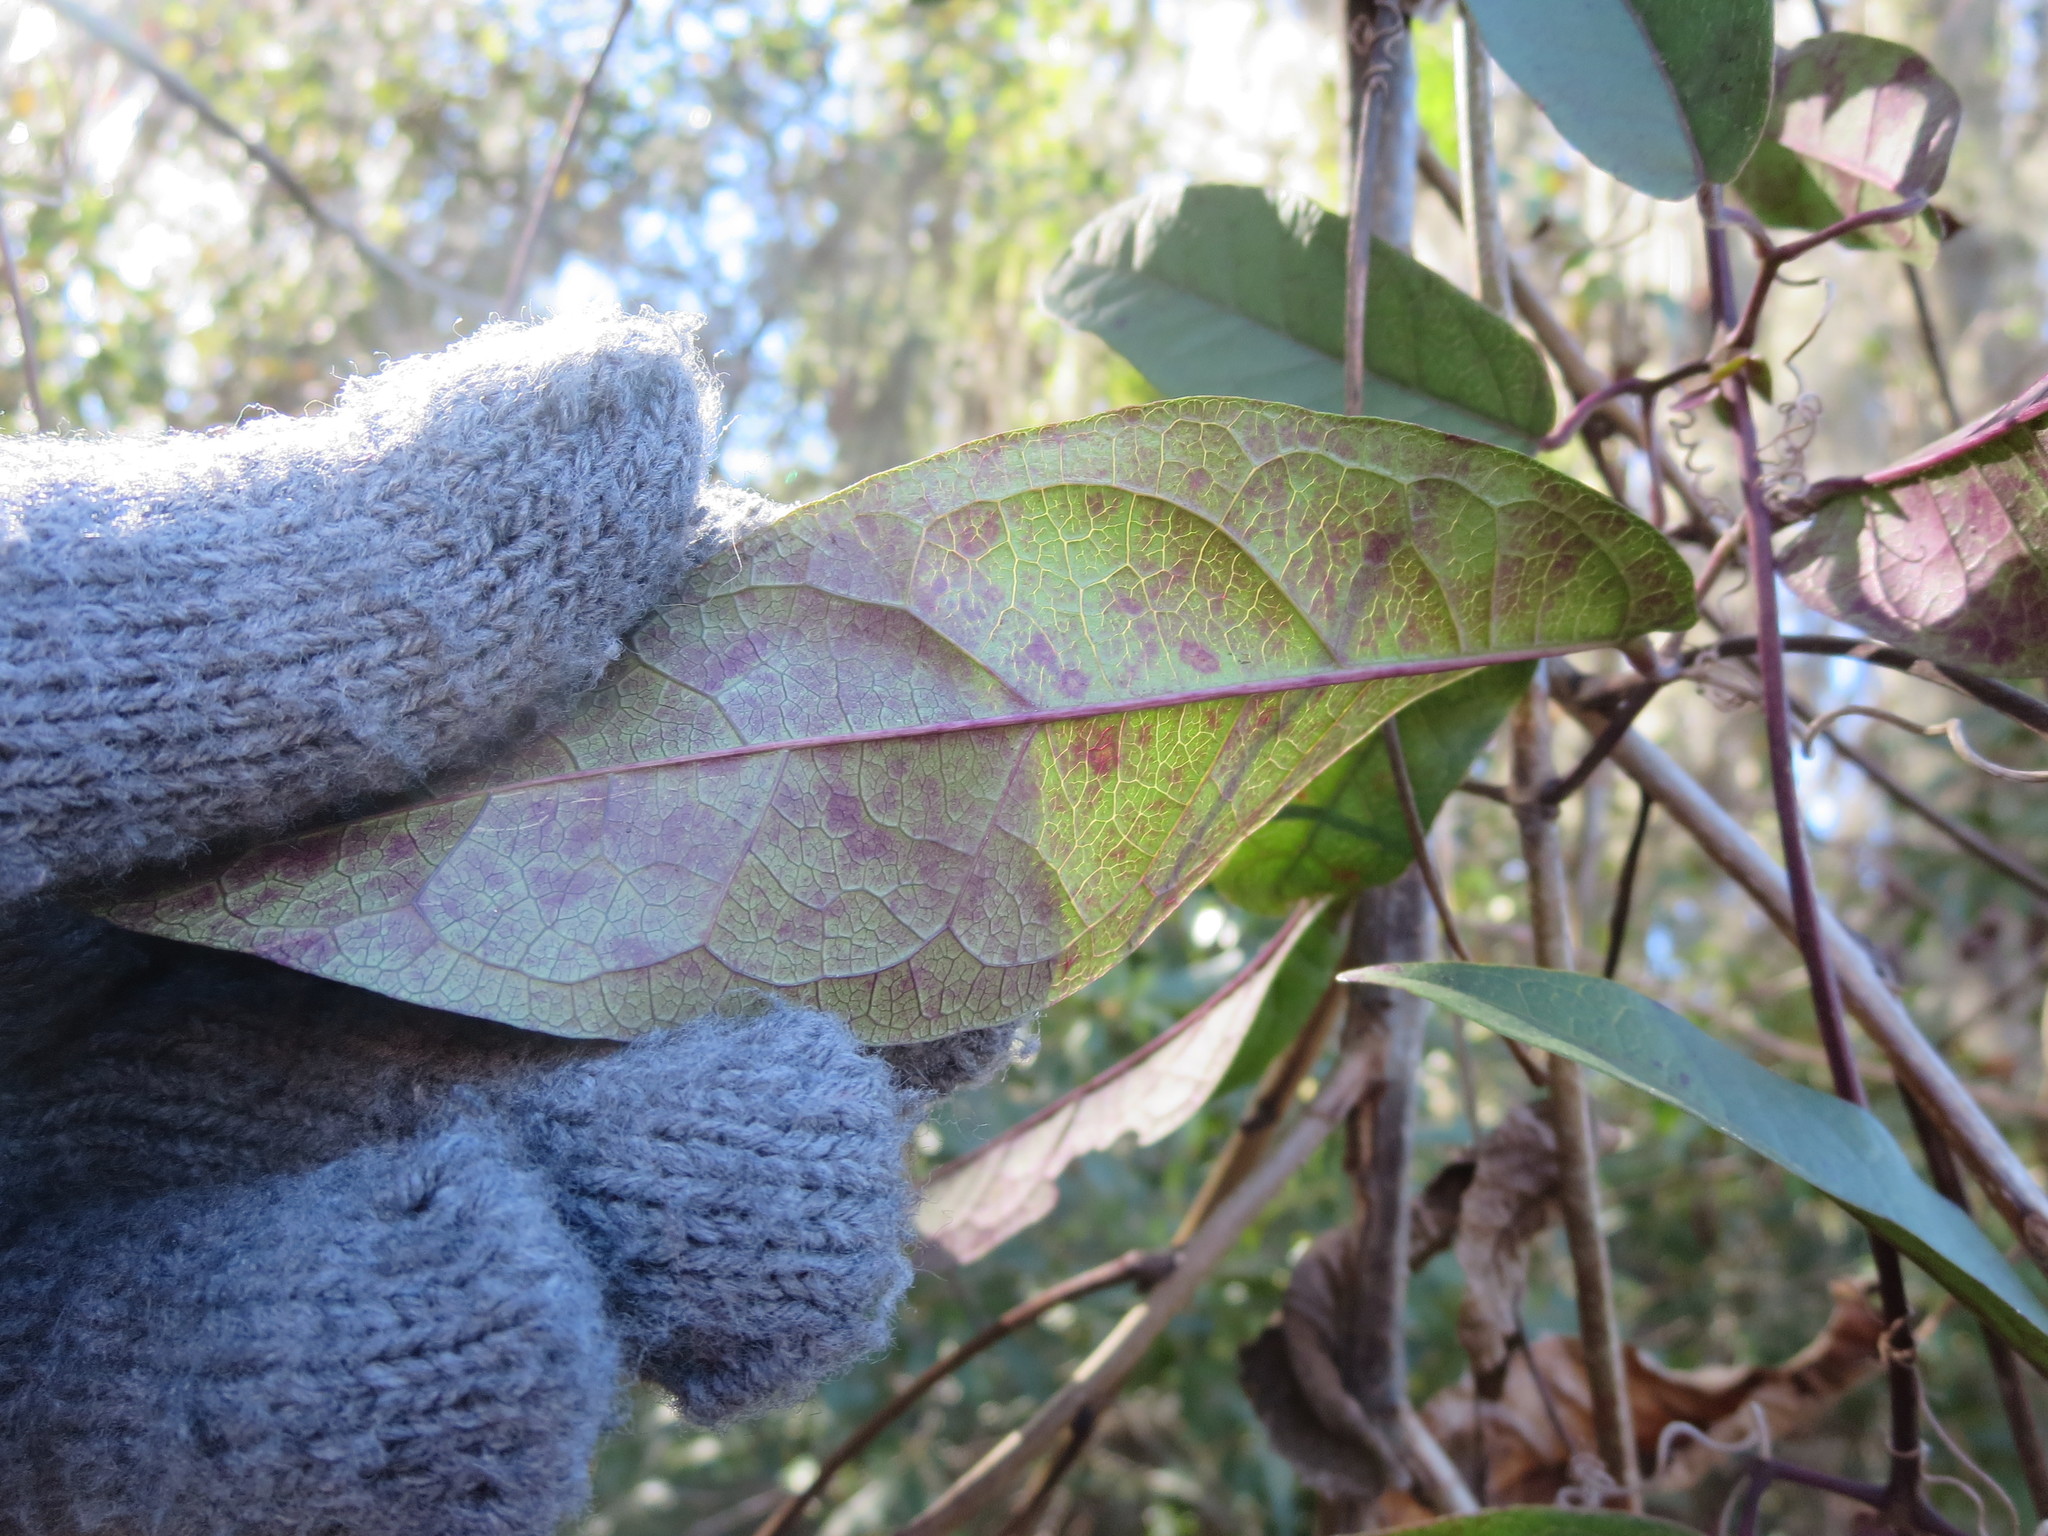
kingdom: Plantae
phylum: Tracheophyta
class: Magnoliopsida
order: Lamiales
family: Bignoniaceae
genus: Bignonia
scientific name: Bignonia capreolata
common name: Crossvine
